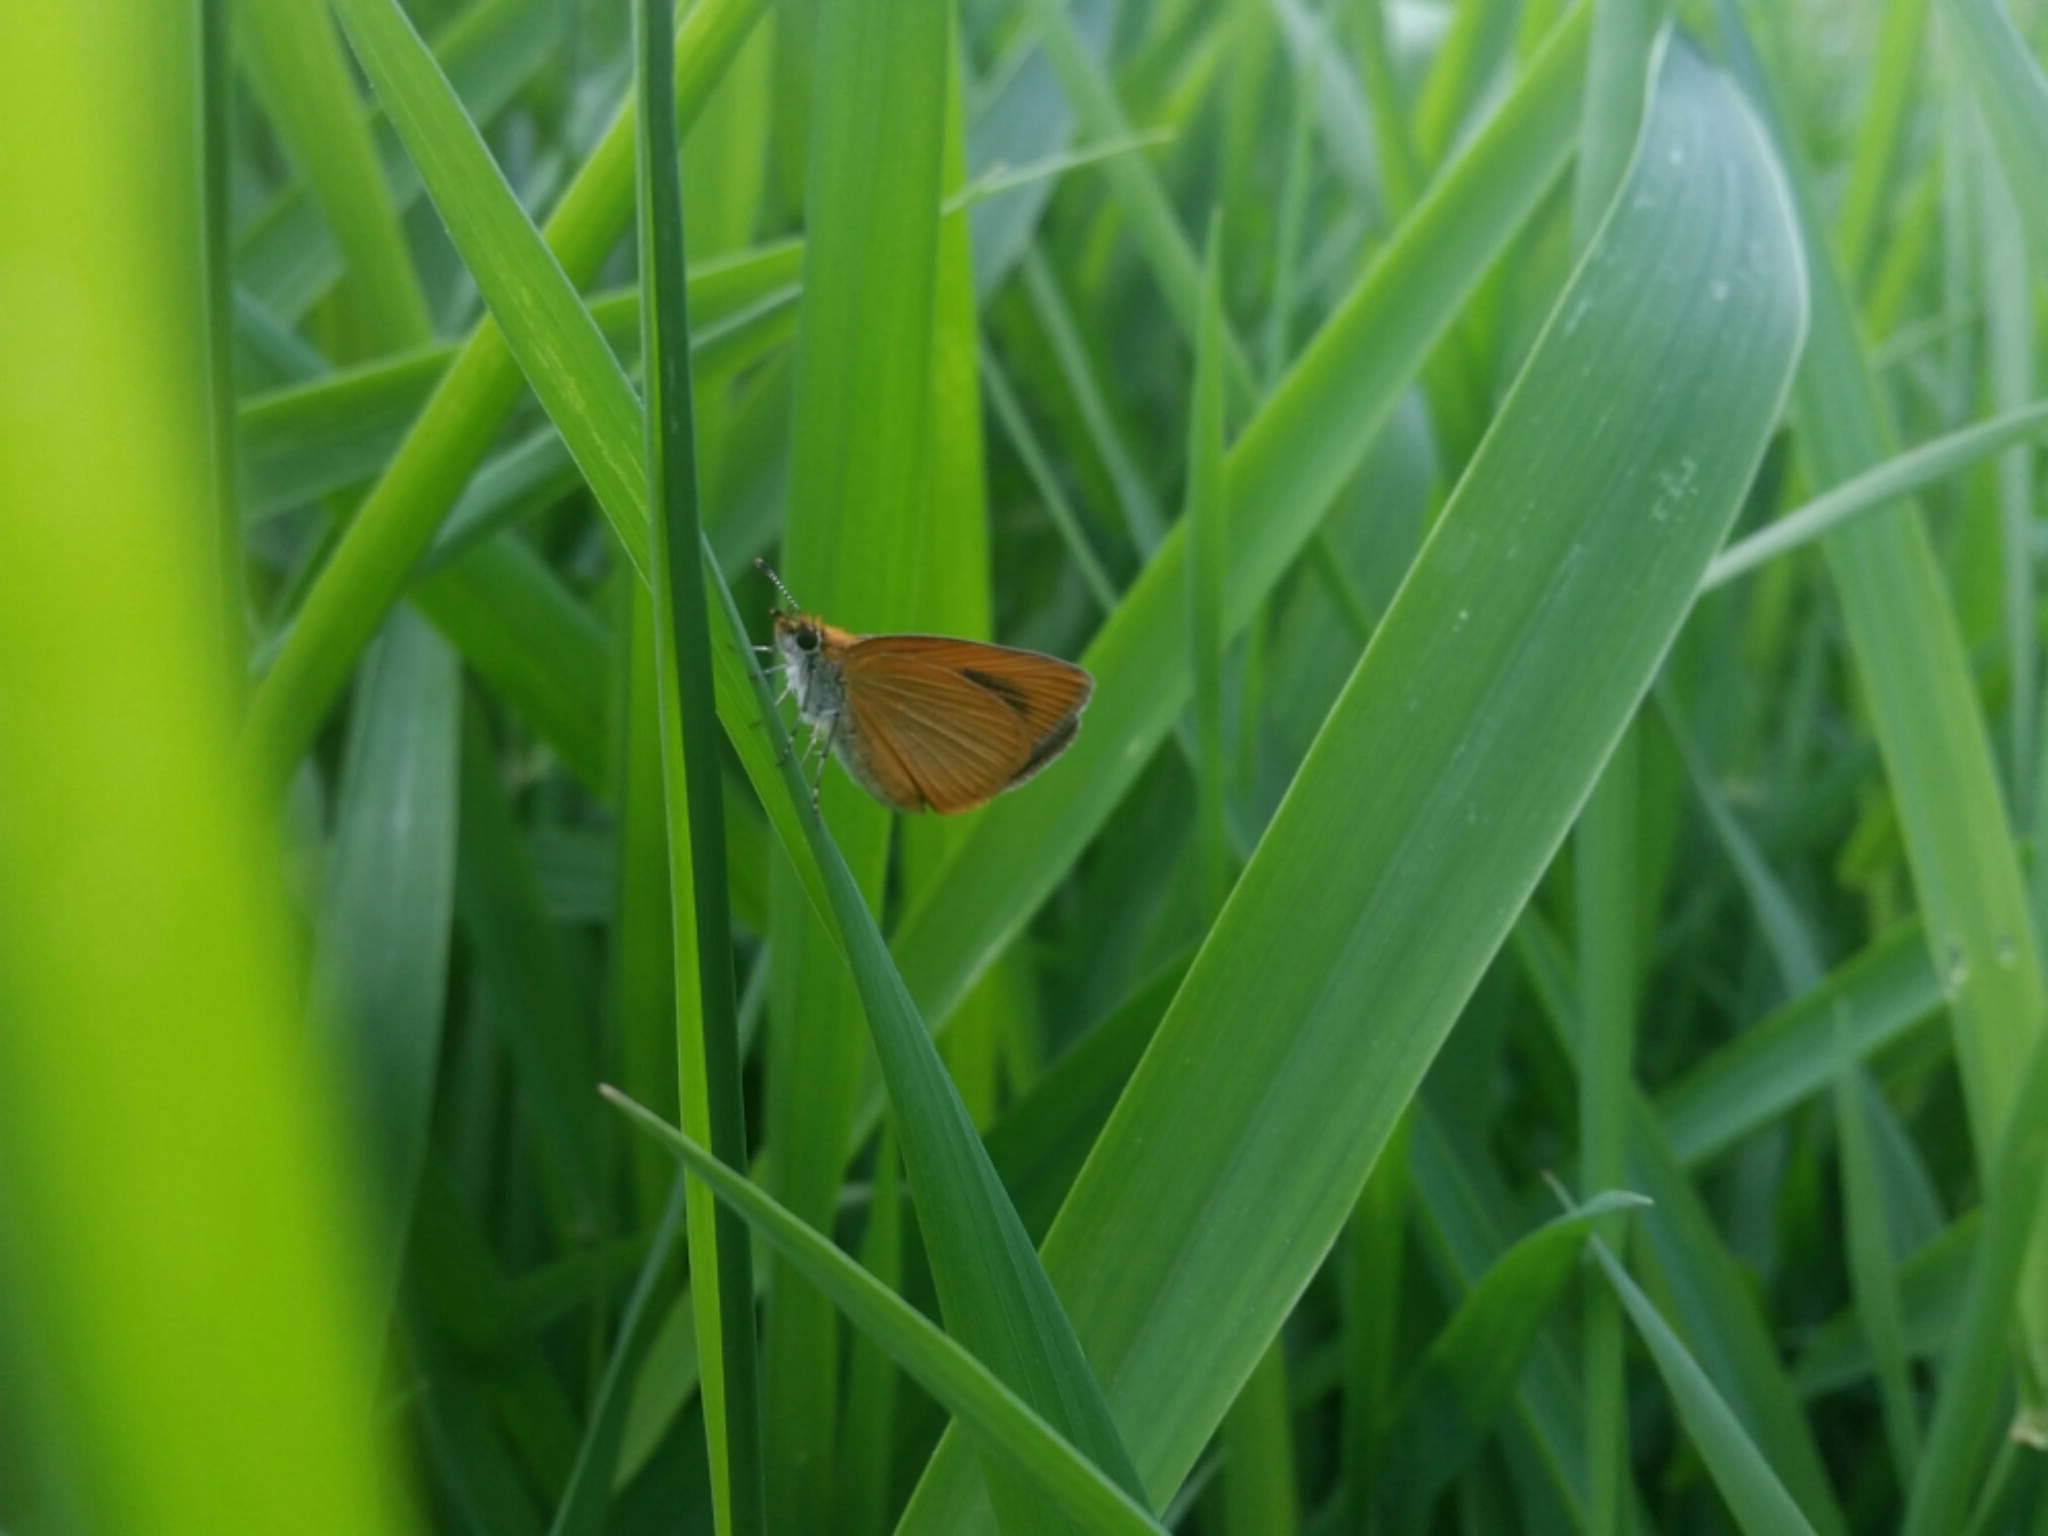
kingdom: Animalia
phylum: Arthropoda
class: Insecta
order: Lepidoptera
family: Hesperiidae
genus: Ancyloxypha
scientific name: Ancyloxypha numitor
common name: Least skipper
